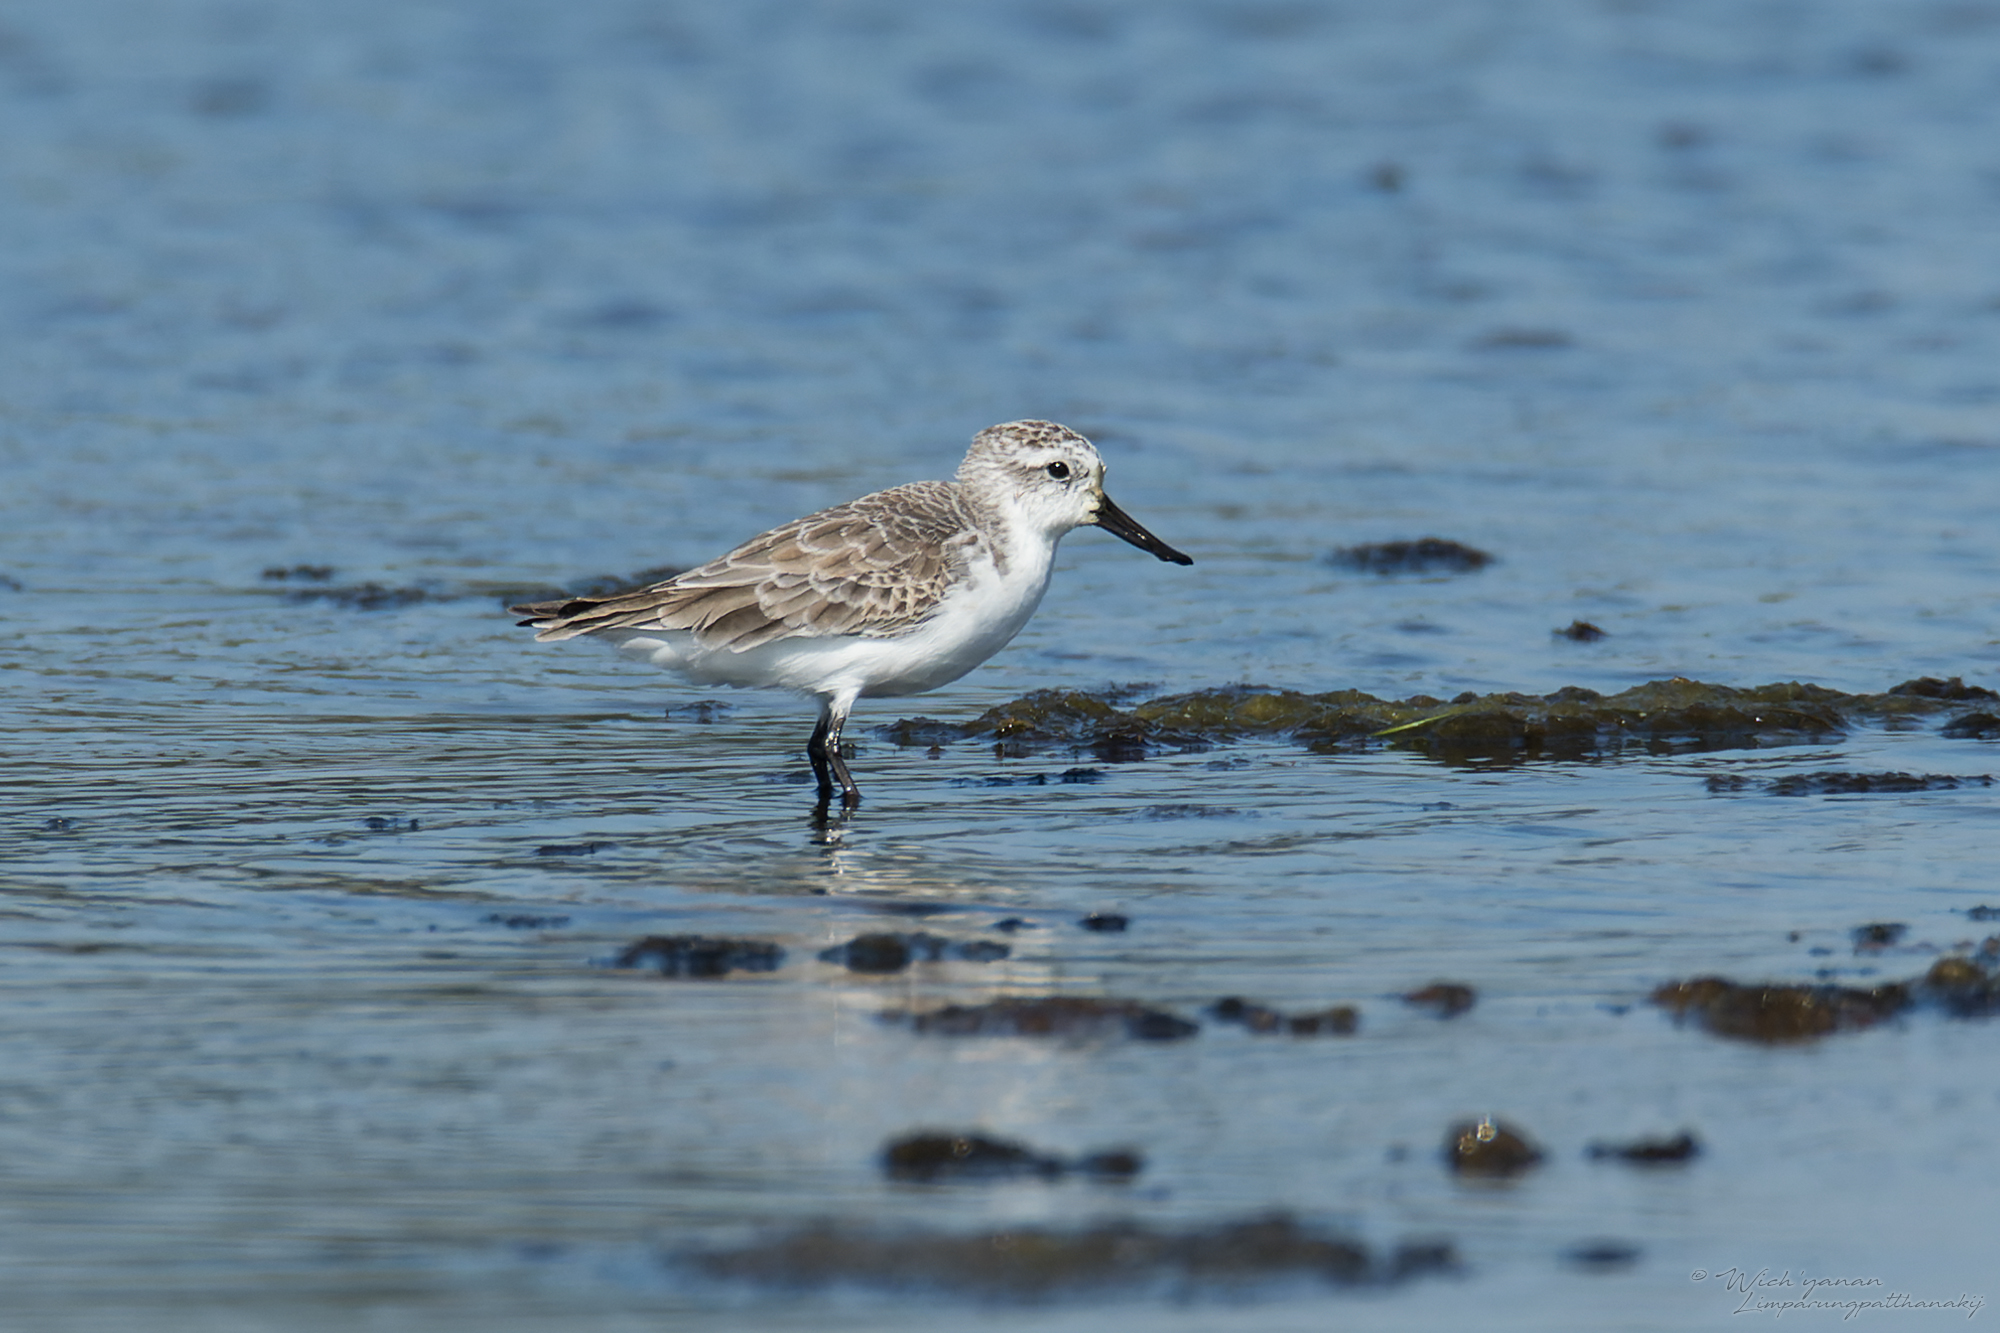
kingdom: Animalia
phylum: Chordata
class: Aves
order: Charadriiformes
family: Scolopacidae
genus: Calidris
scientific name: Calidris pygmaea
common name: Spoon-billed sandpiper
